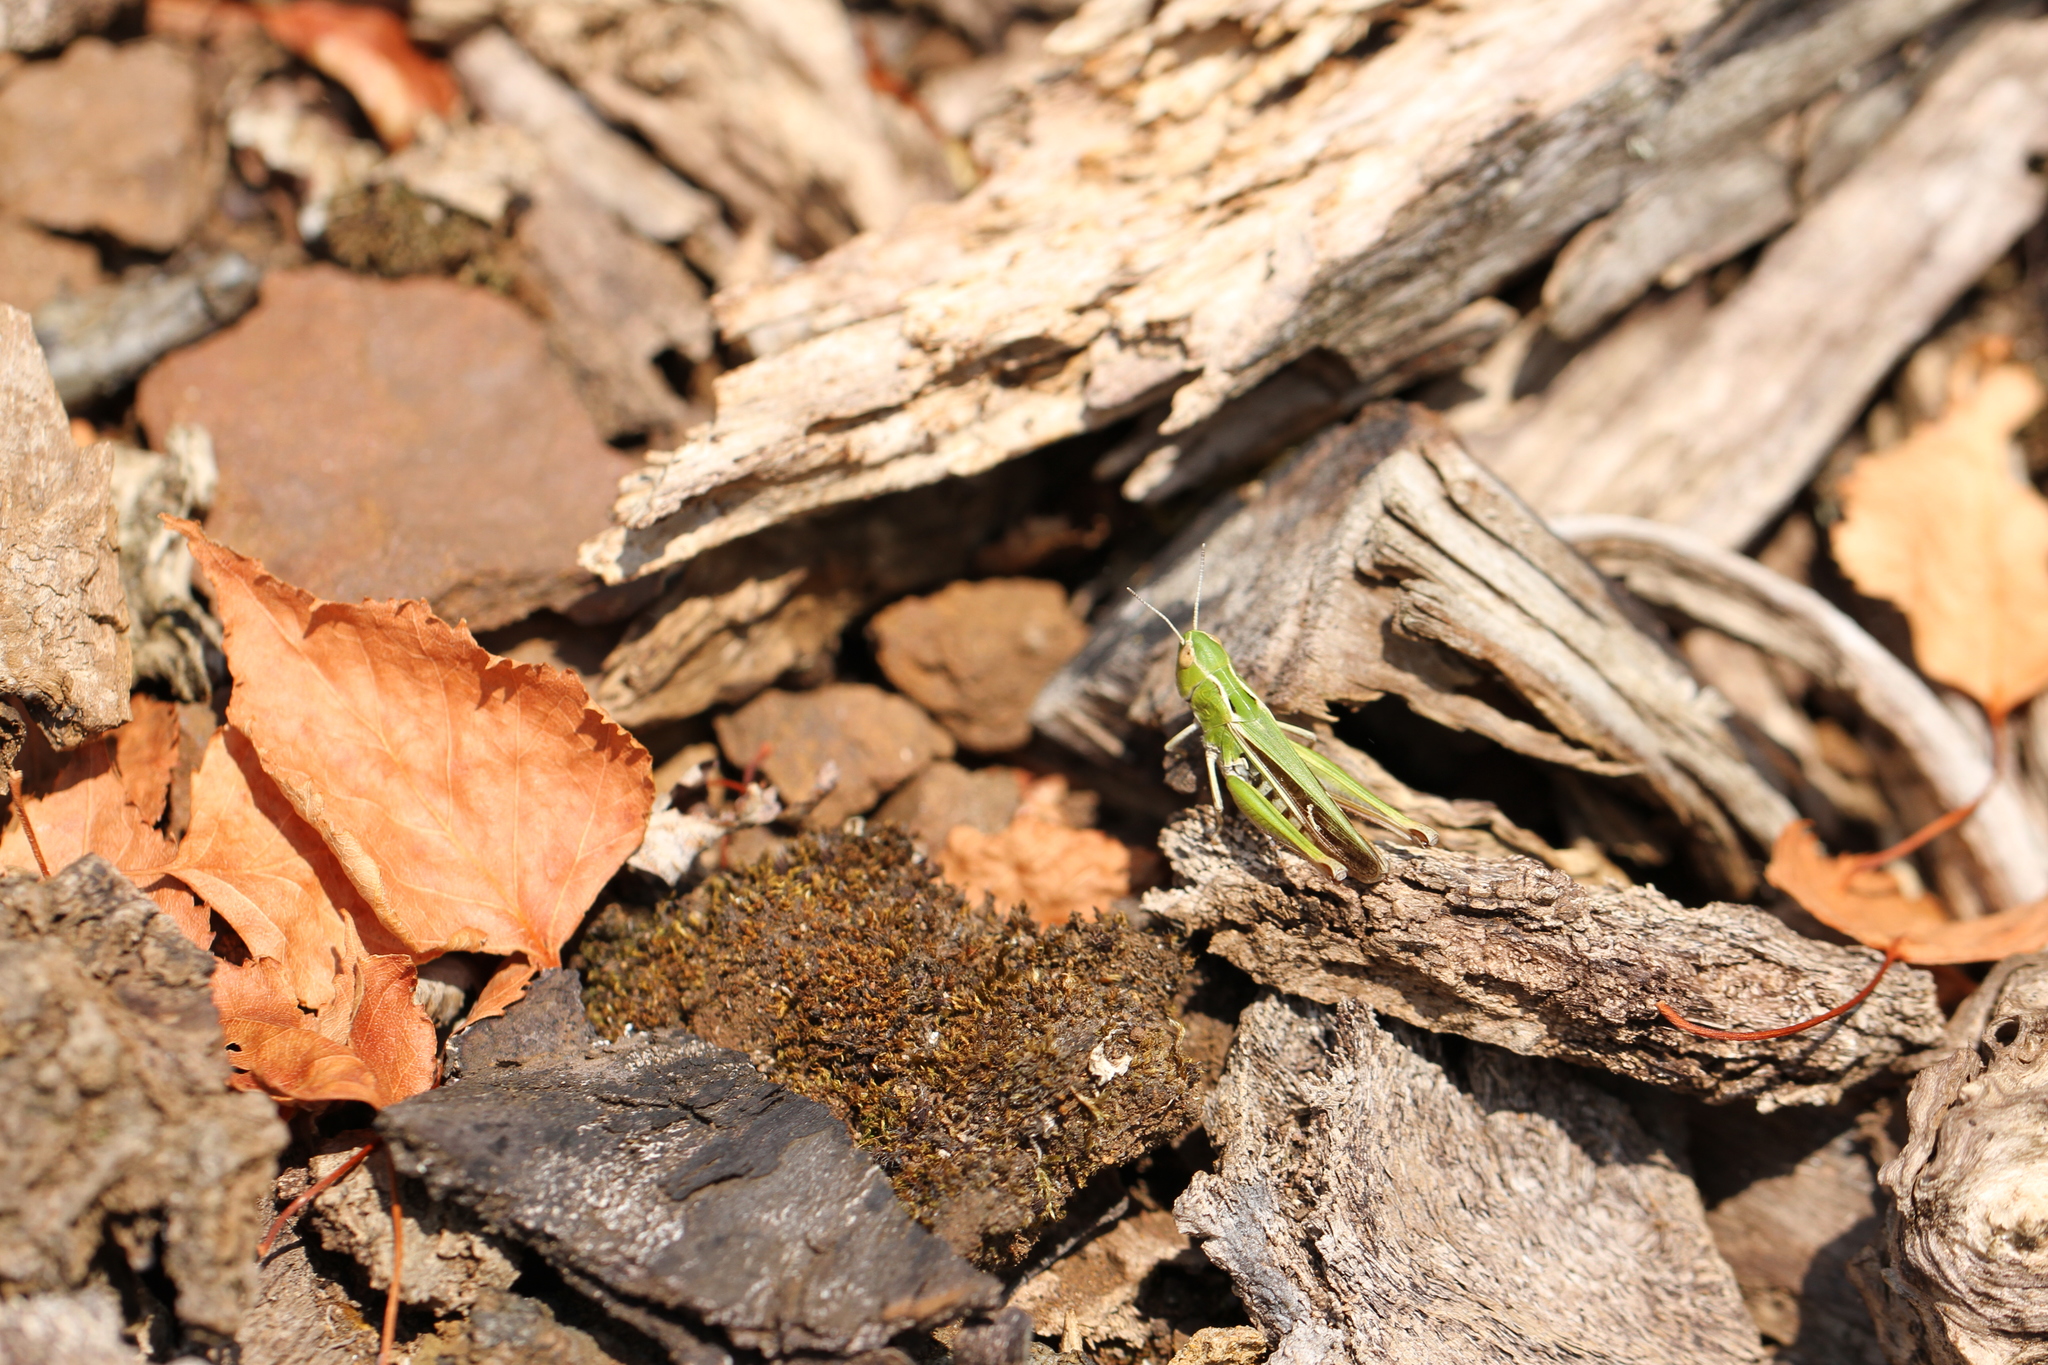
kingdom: Animalia
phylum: Arthropoda
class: Insecta
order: Orthoptera
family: Acrididae
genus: Stenobothrus
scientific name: Stenobothrus lineatus
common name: Stripe-winged grasshopper
